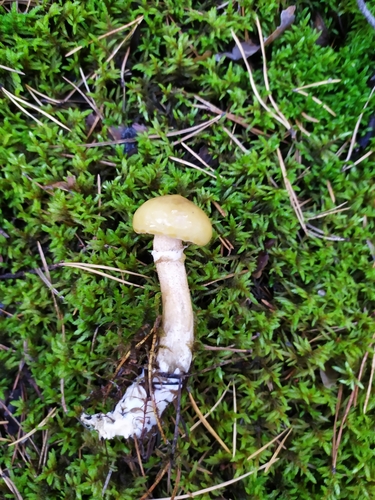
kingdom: Fungi
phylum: Basidiomycota
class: Agaricomycetes
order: Boletales
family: Suillaceae
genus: Suillus
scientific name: Suillus acidus
